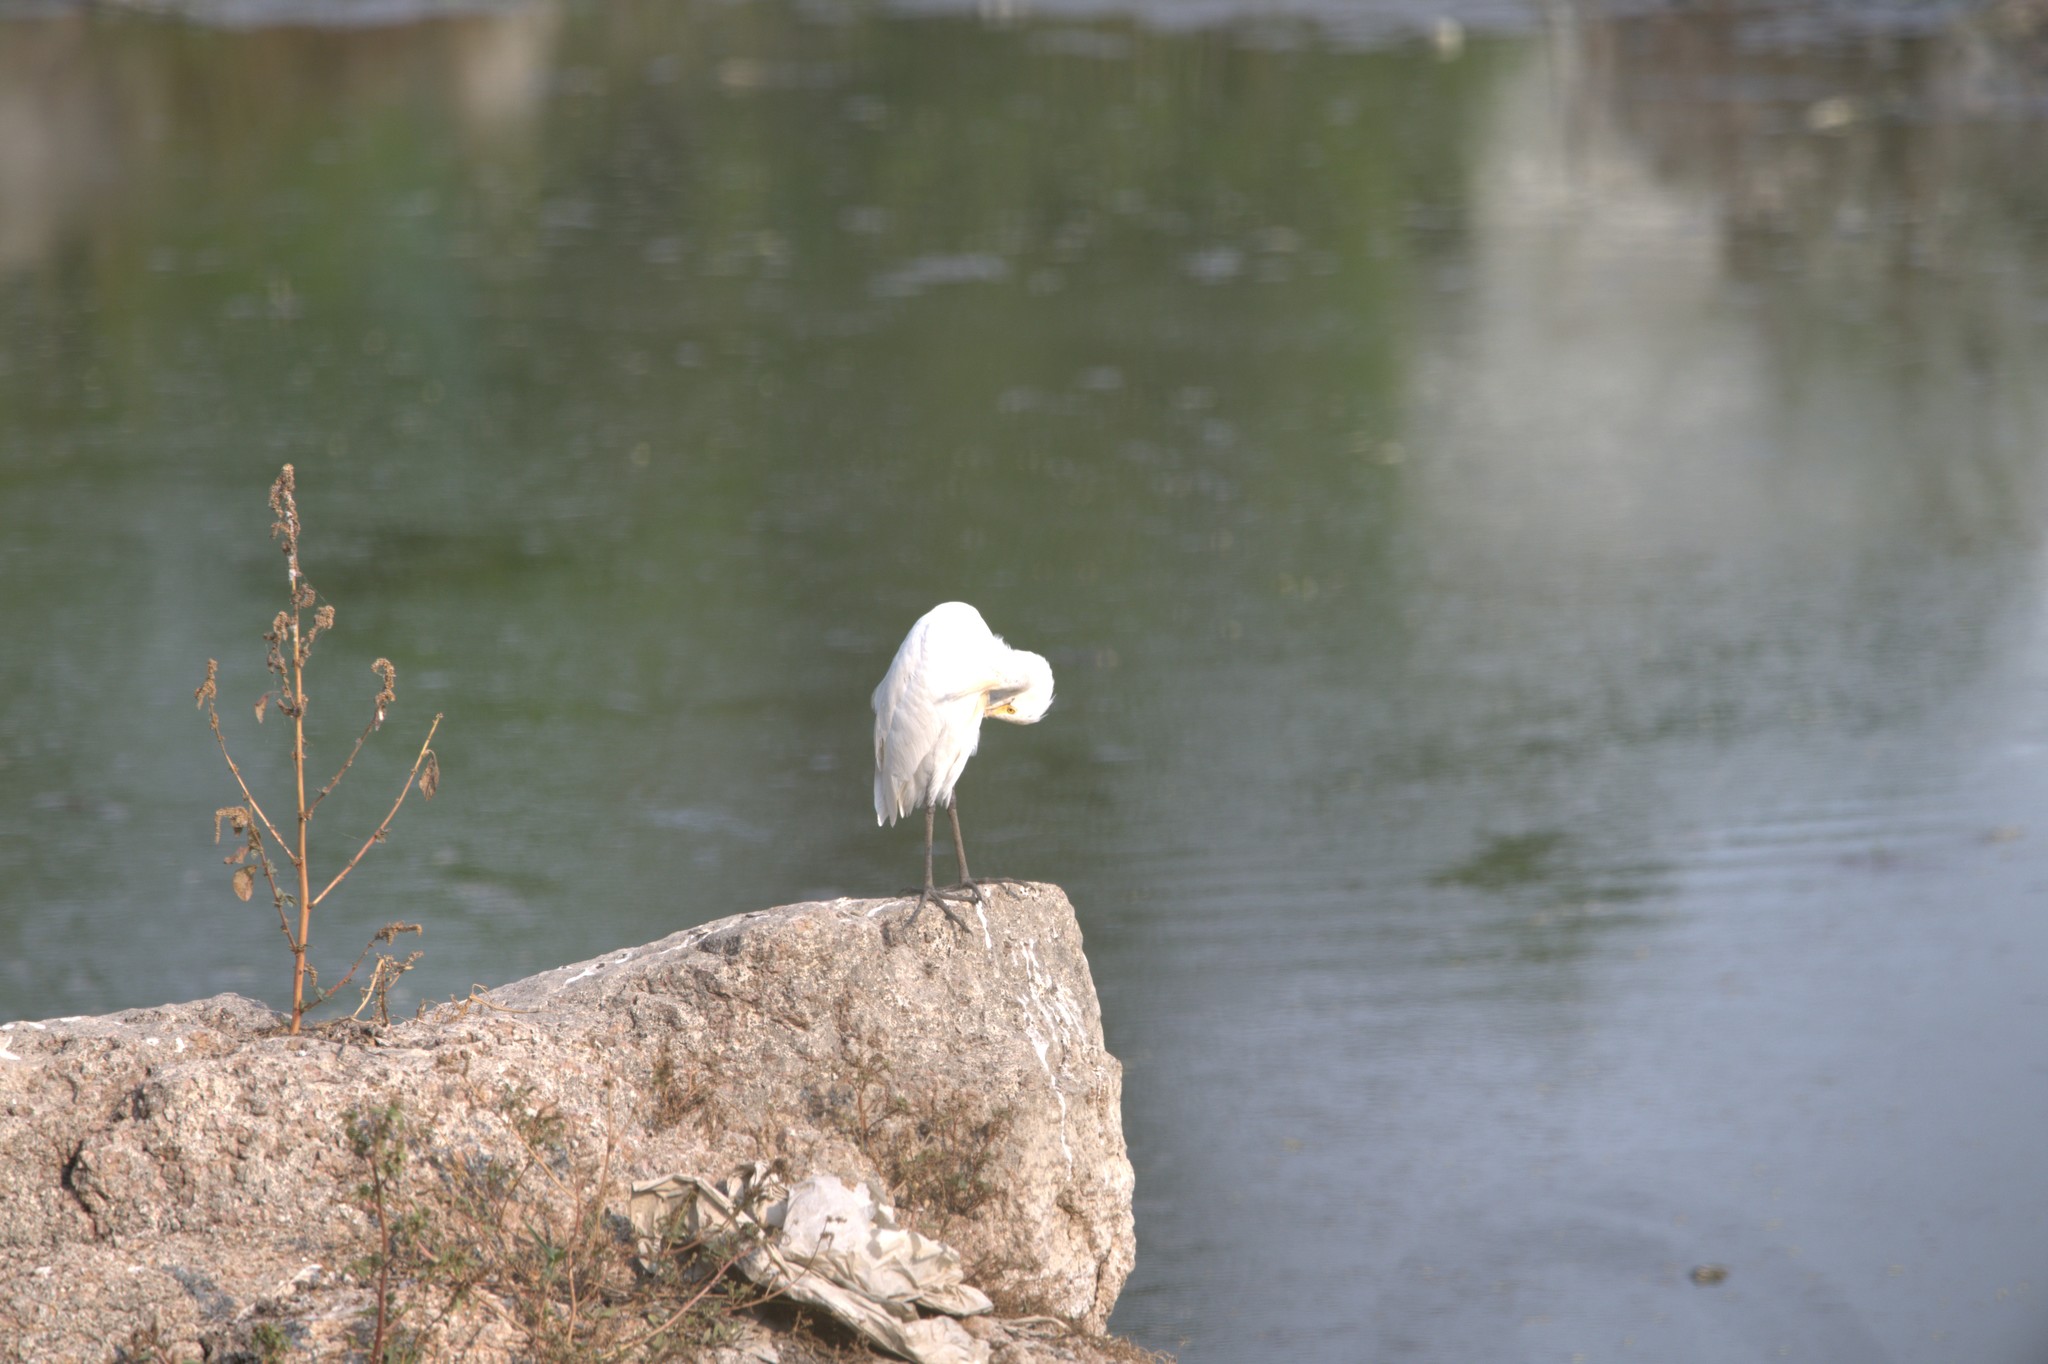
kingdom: Animalia
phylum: Chordata
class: Aves
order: Pelecaniformes
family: Ardeidae
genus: Bubulcus
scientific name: Bubulcus coromandus
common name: Eastern cattle egret
